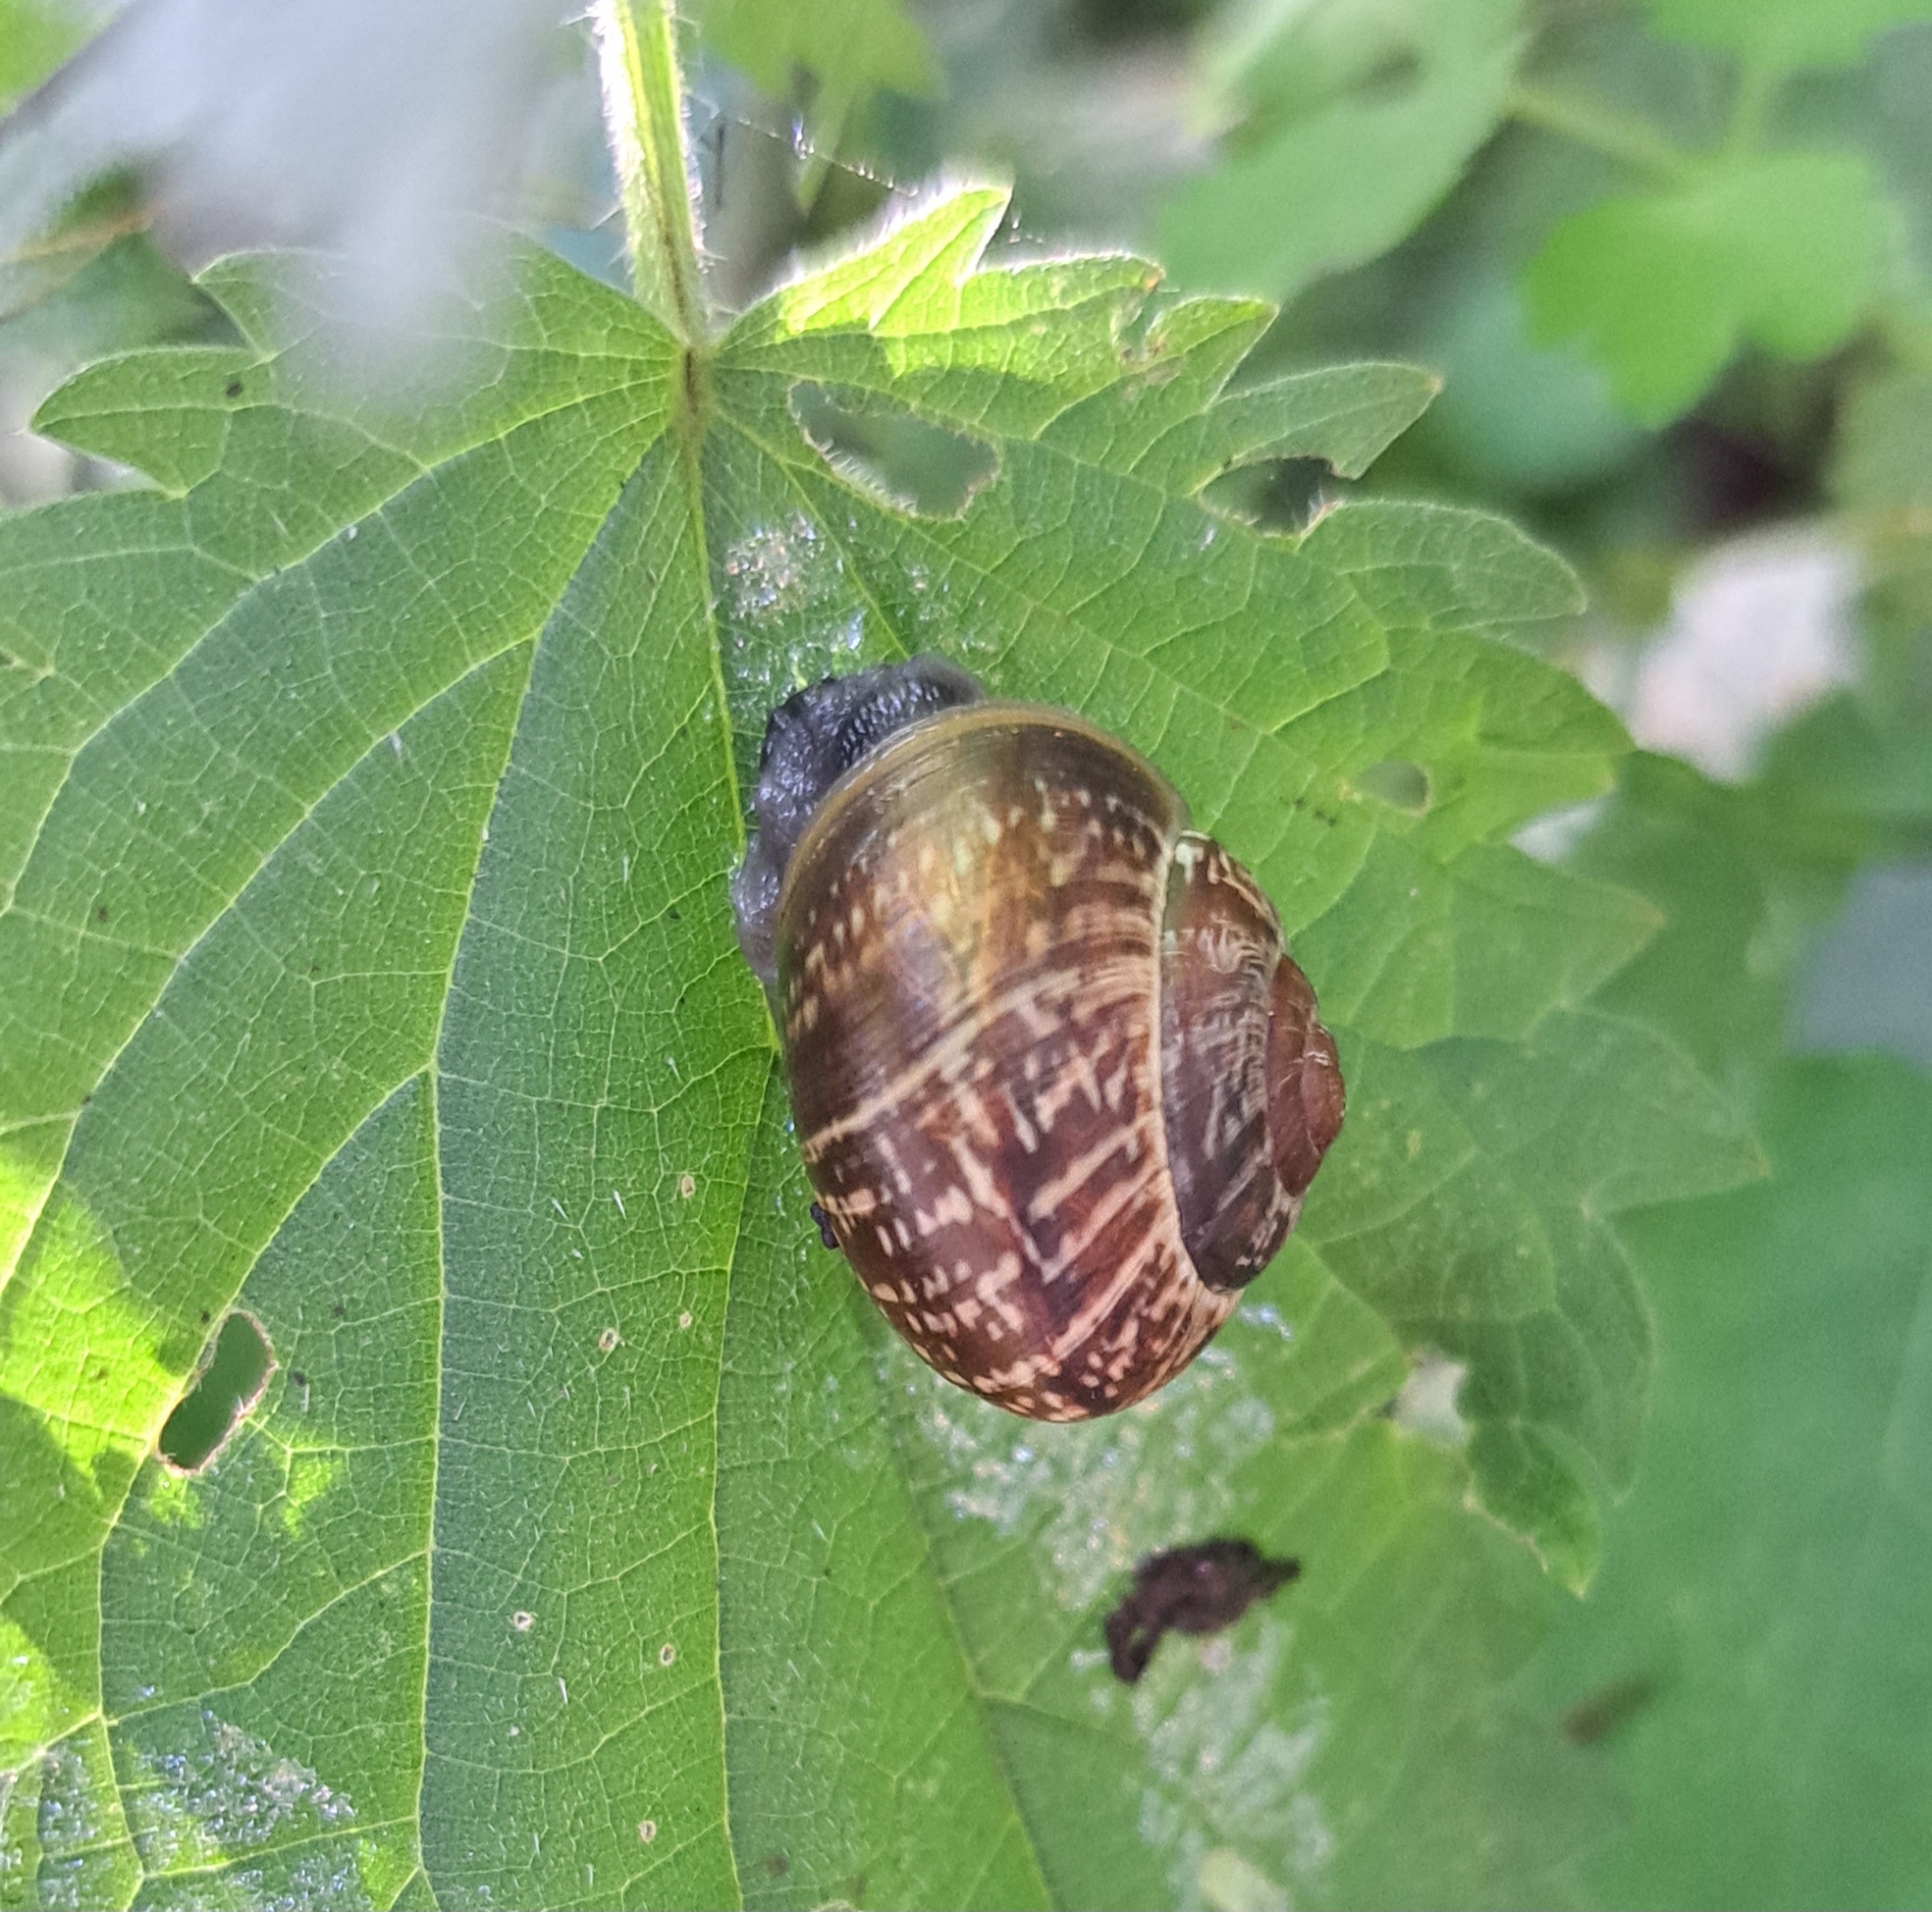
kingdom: Animalia
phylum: Mollusca
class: Gastropoda
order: Stylommatophora
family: Helicidae
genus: Arianta
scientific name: Arianta arbustorum
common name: Copse snail
